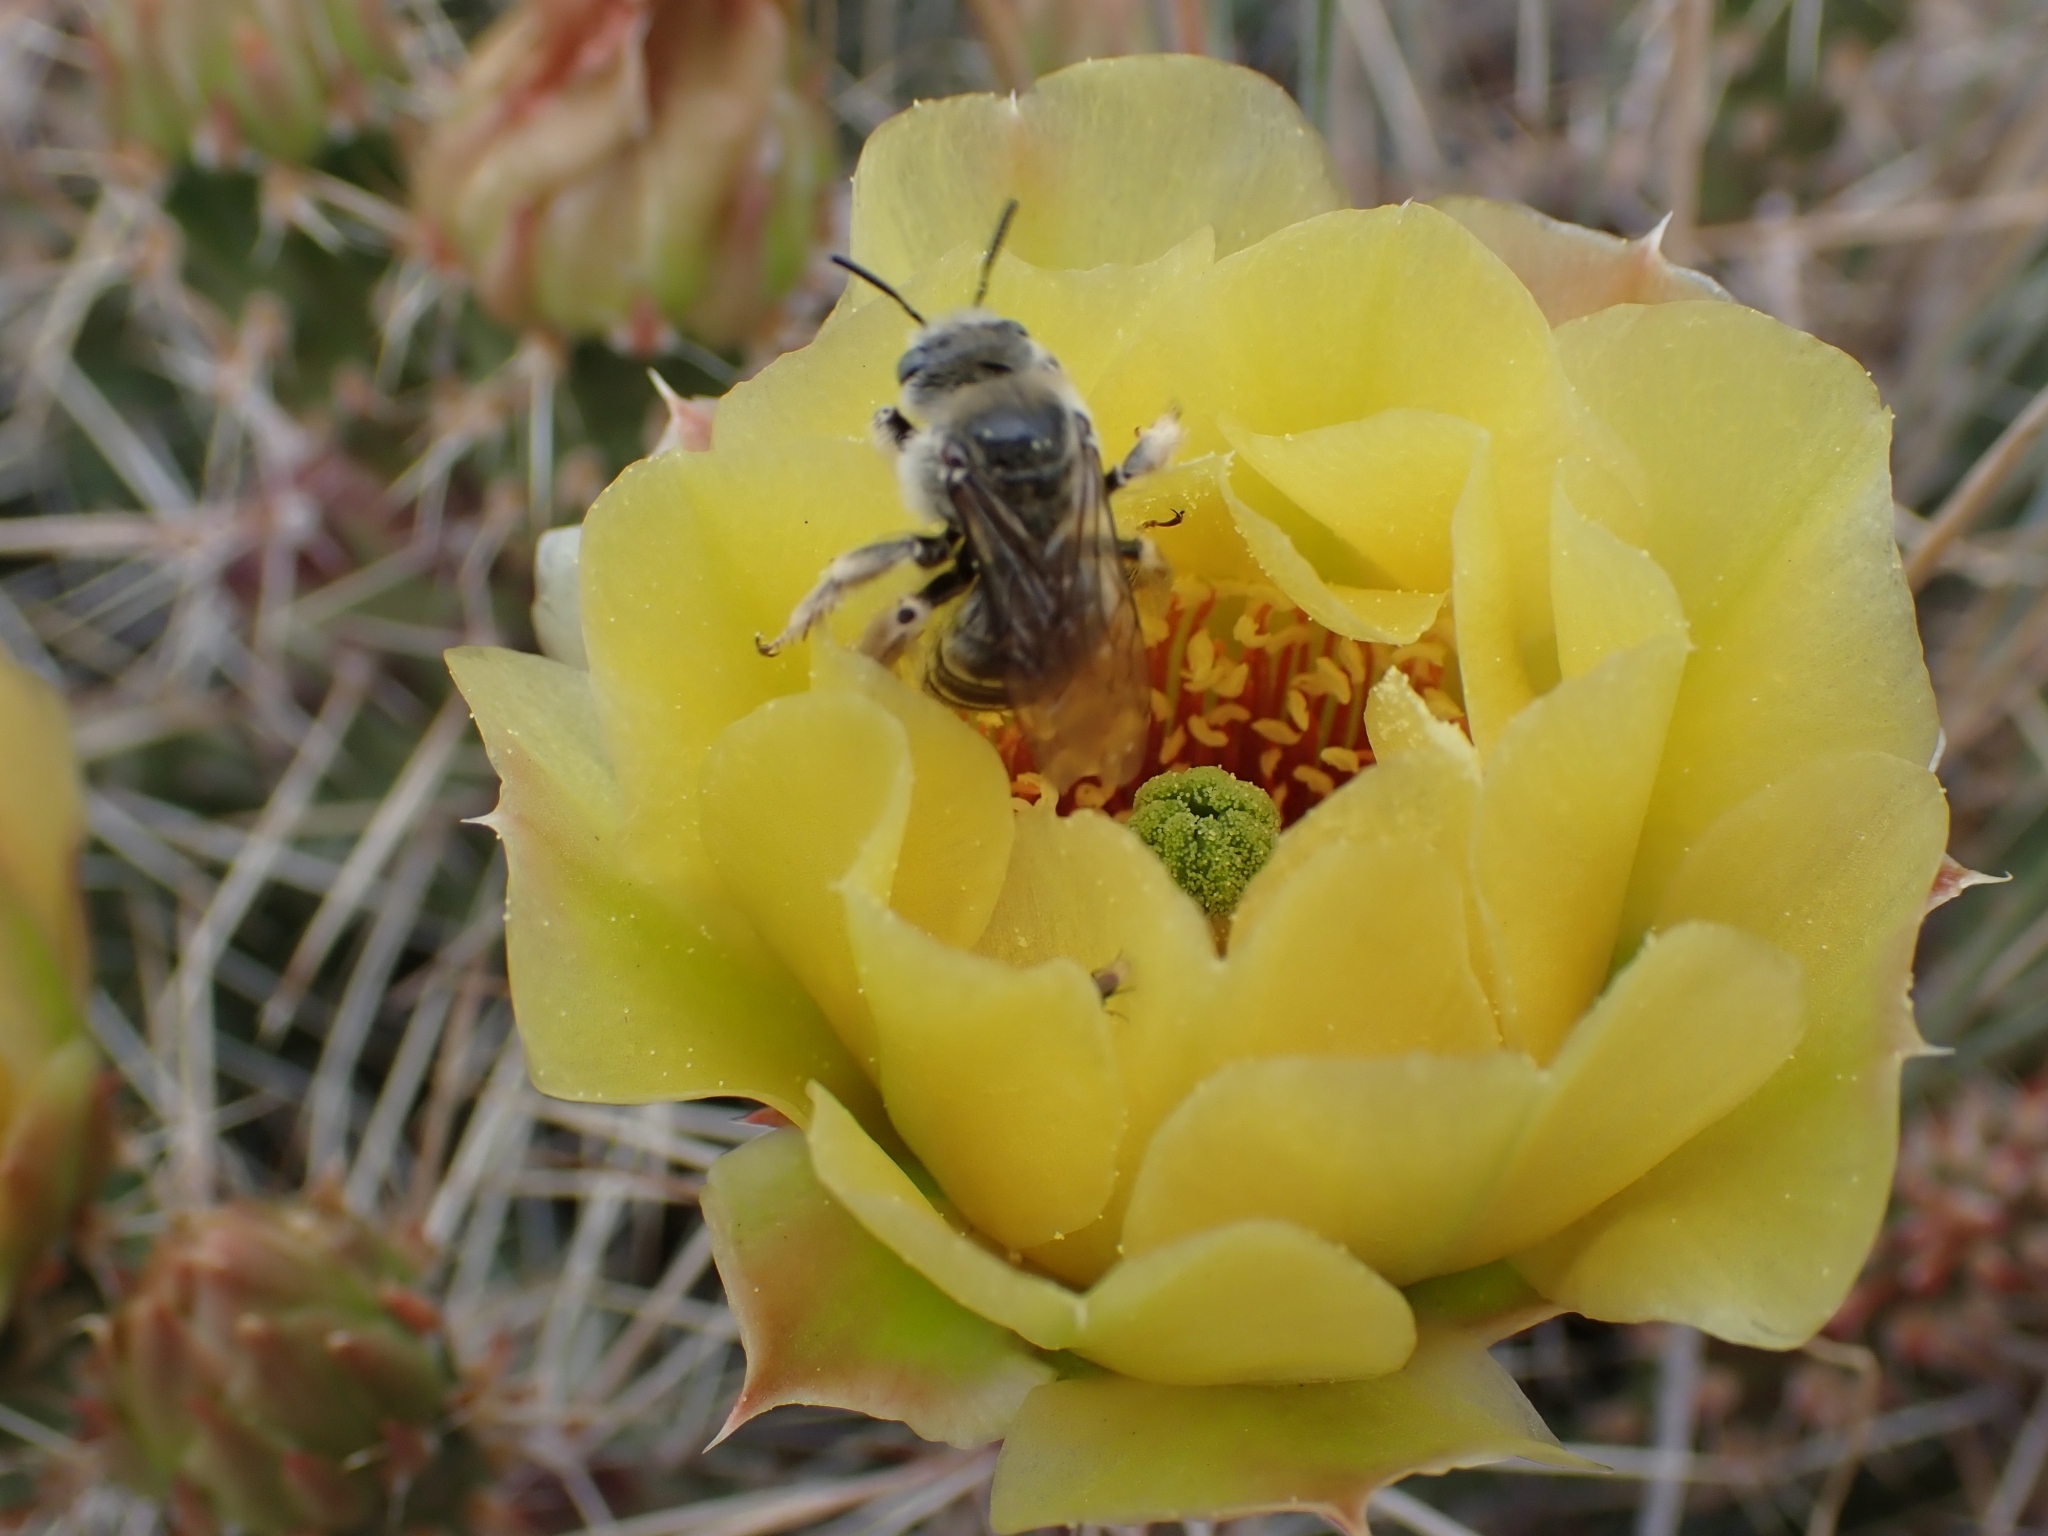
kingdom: Animalia
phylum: Arthropoda
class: Insecta
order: Hymenoptera
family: Apidae
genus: Diadasia
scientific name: Diadasia australis
